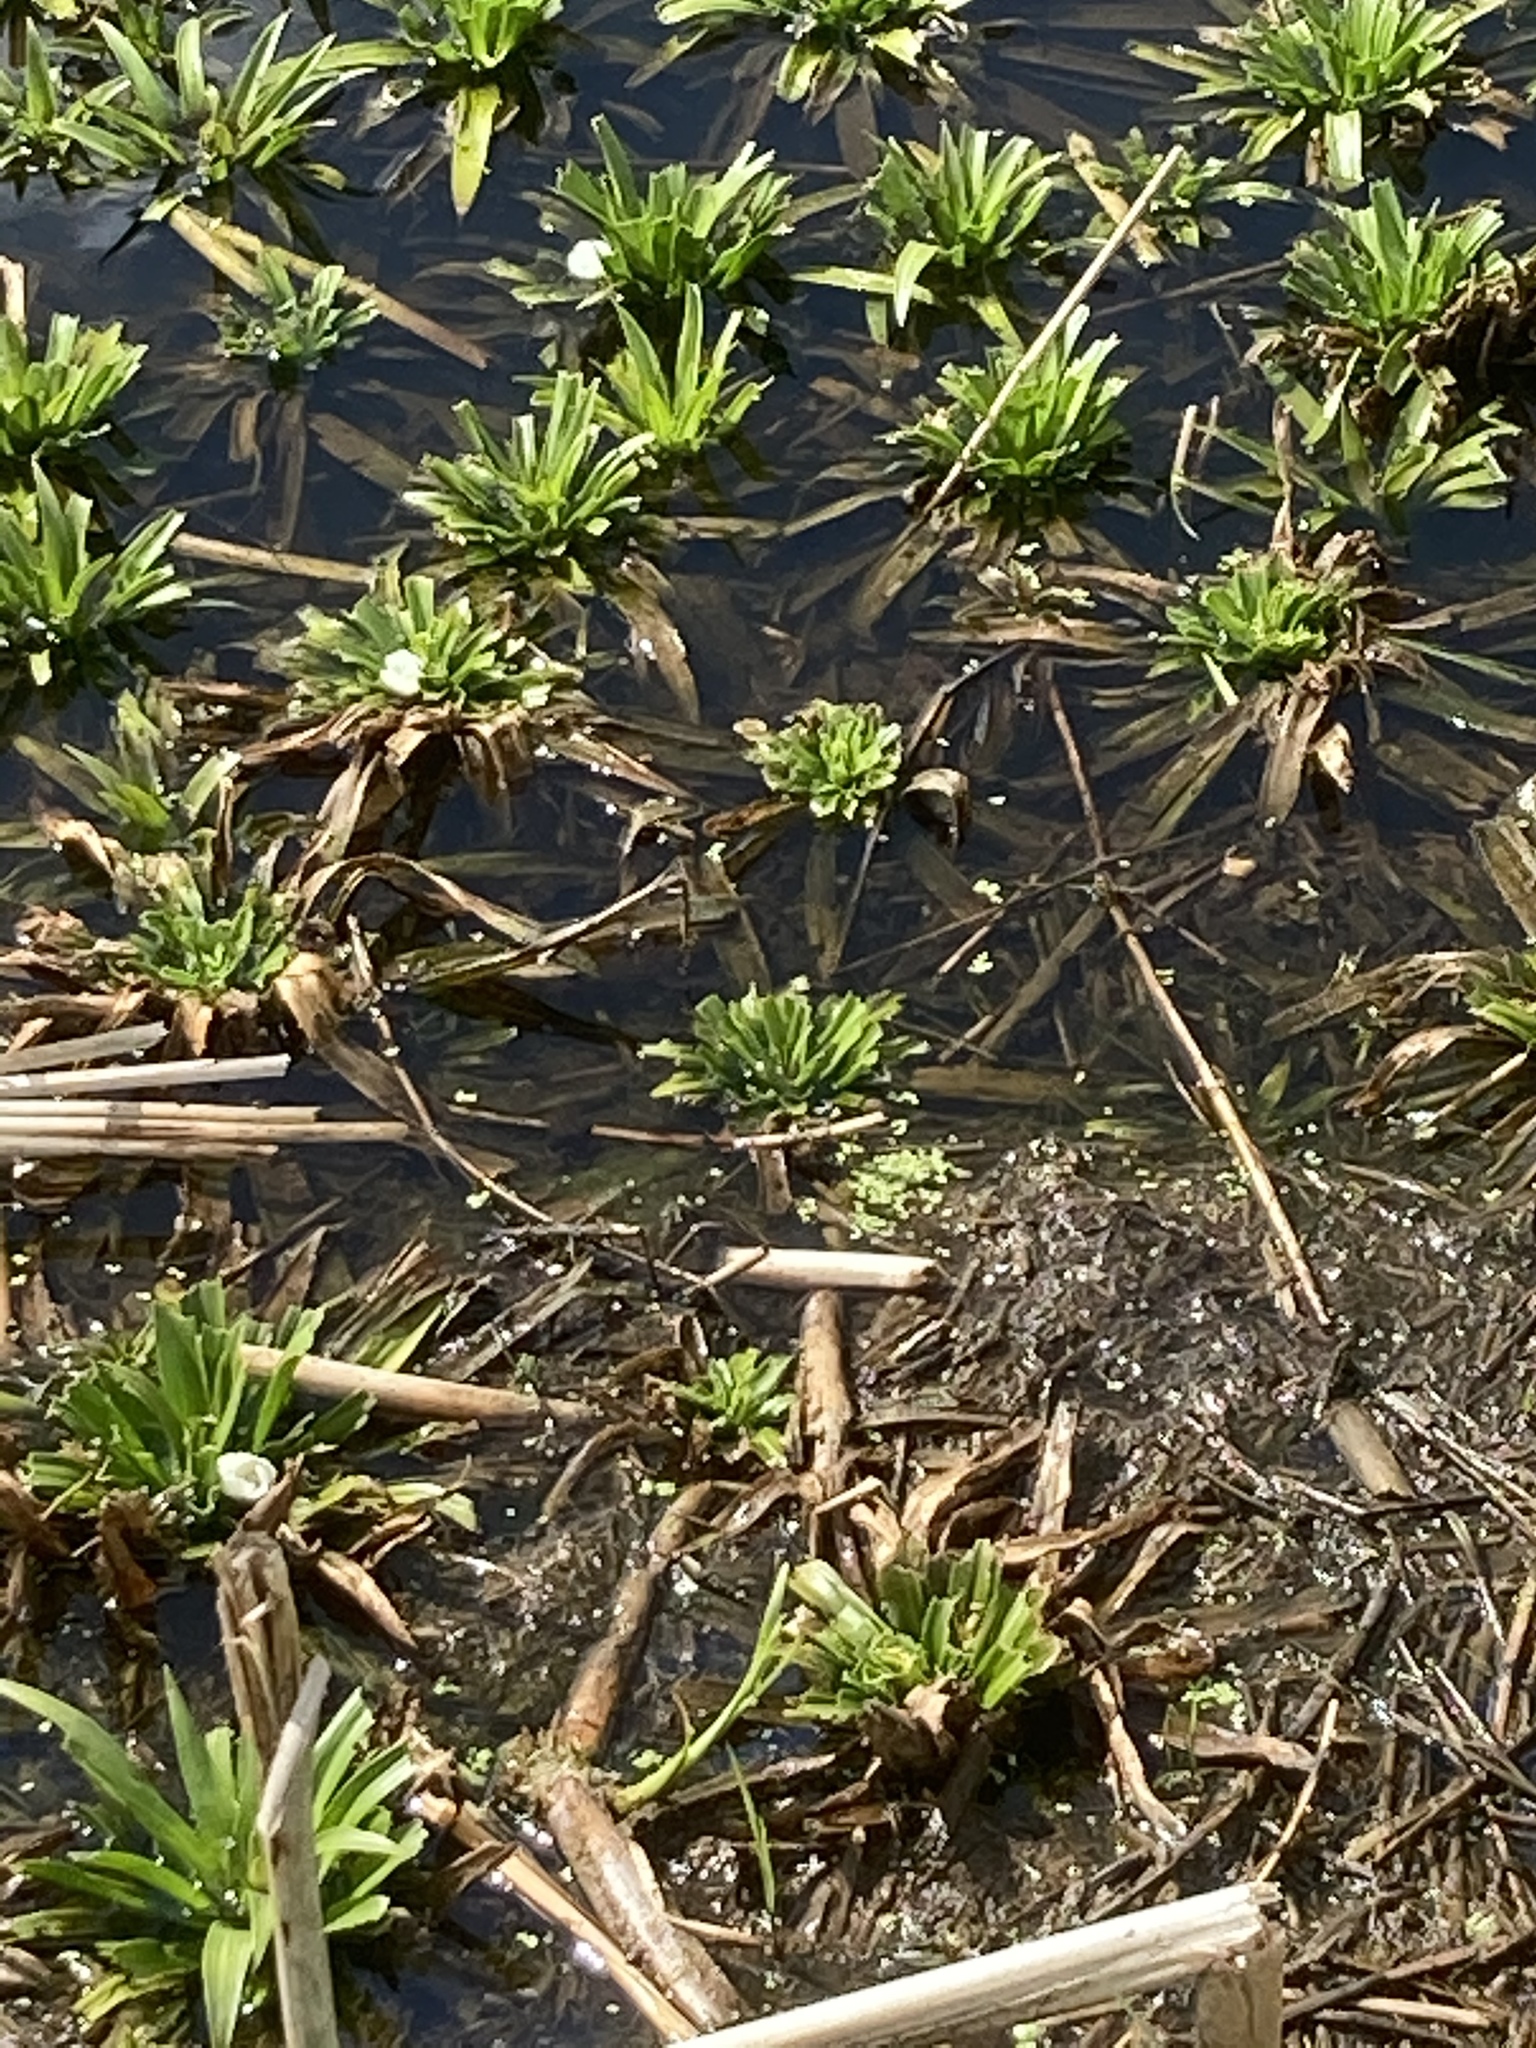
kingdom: Plantae
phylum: Tracheophyta
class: Liliopsida
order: Alismatales
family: Hydrocharitaceae
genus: Stratiotes
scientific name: Stratiotes aloides
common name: Water-soldier
